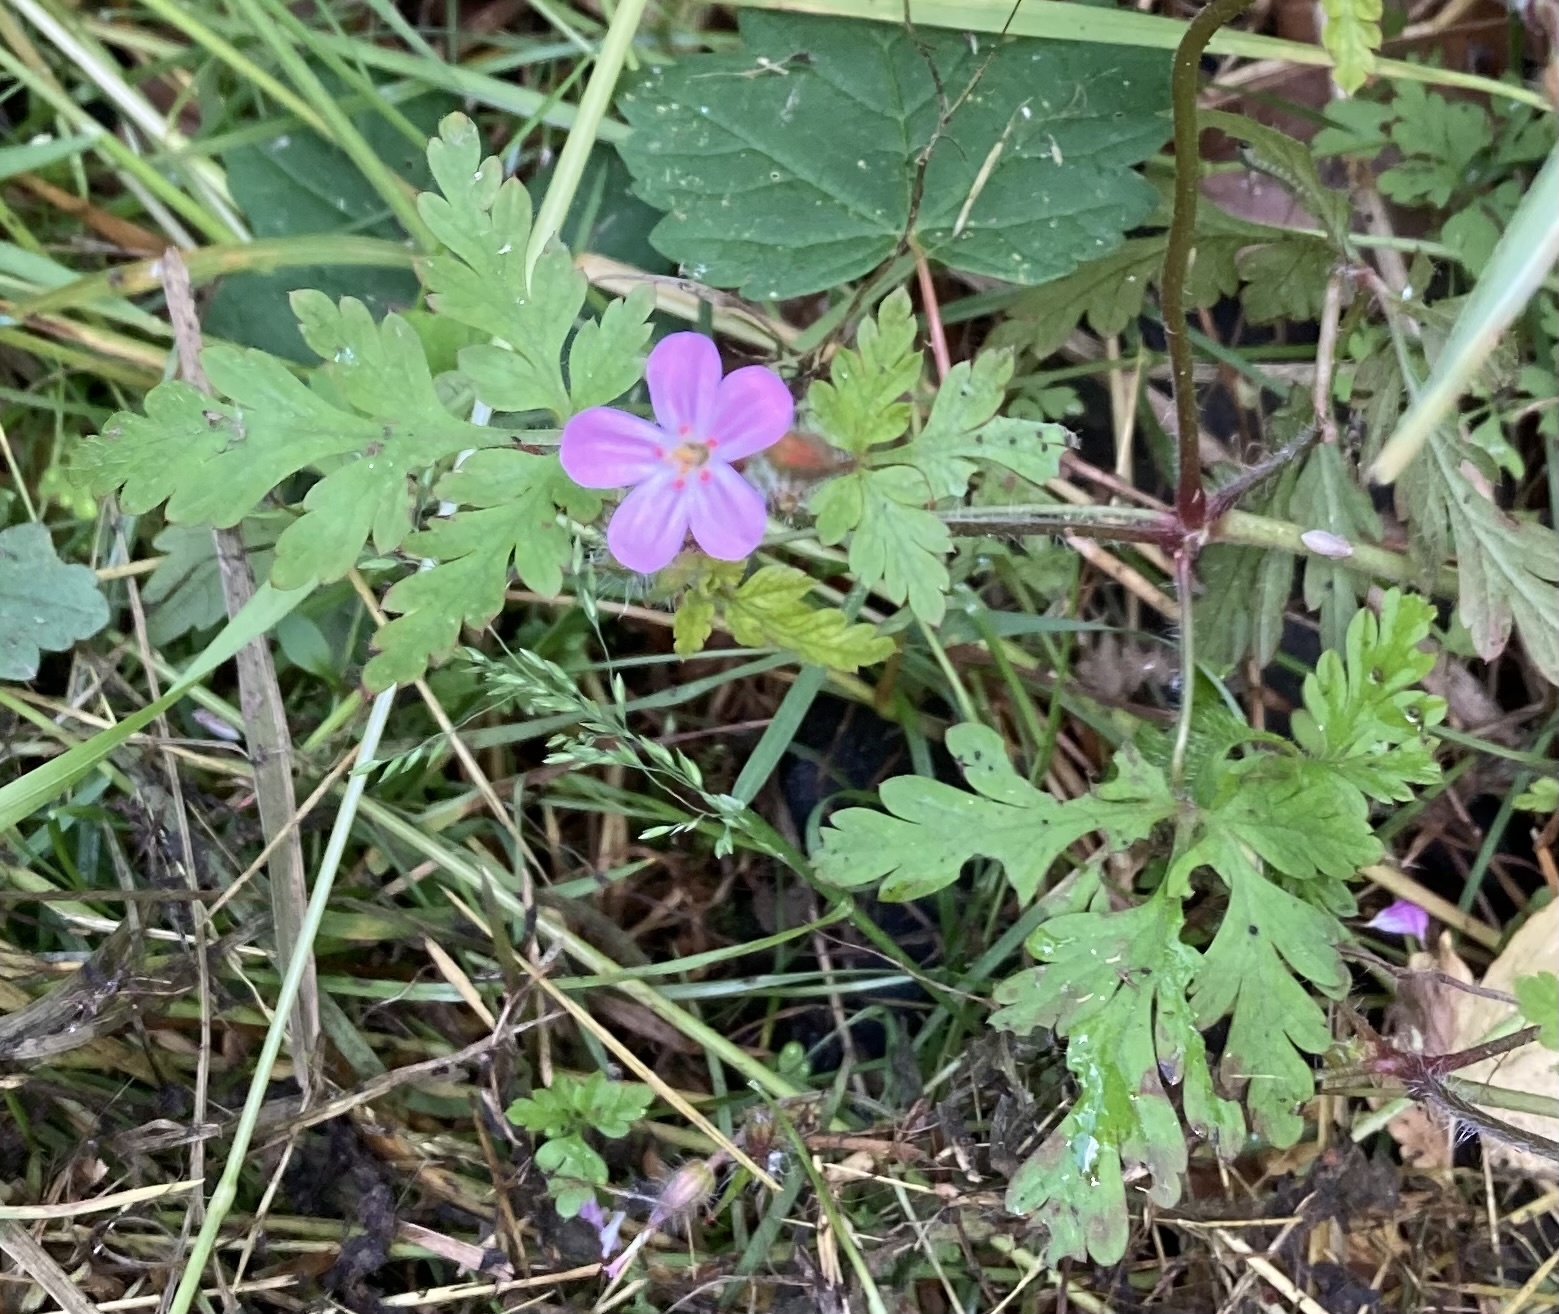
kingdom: Plantae
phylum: Tracheophyta
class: Magnoliopsida
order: Geraniales
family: Geraniaceae
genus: Geranium
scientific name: Geranium robertianum
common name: Herb-robert
